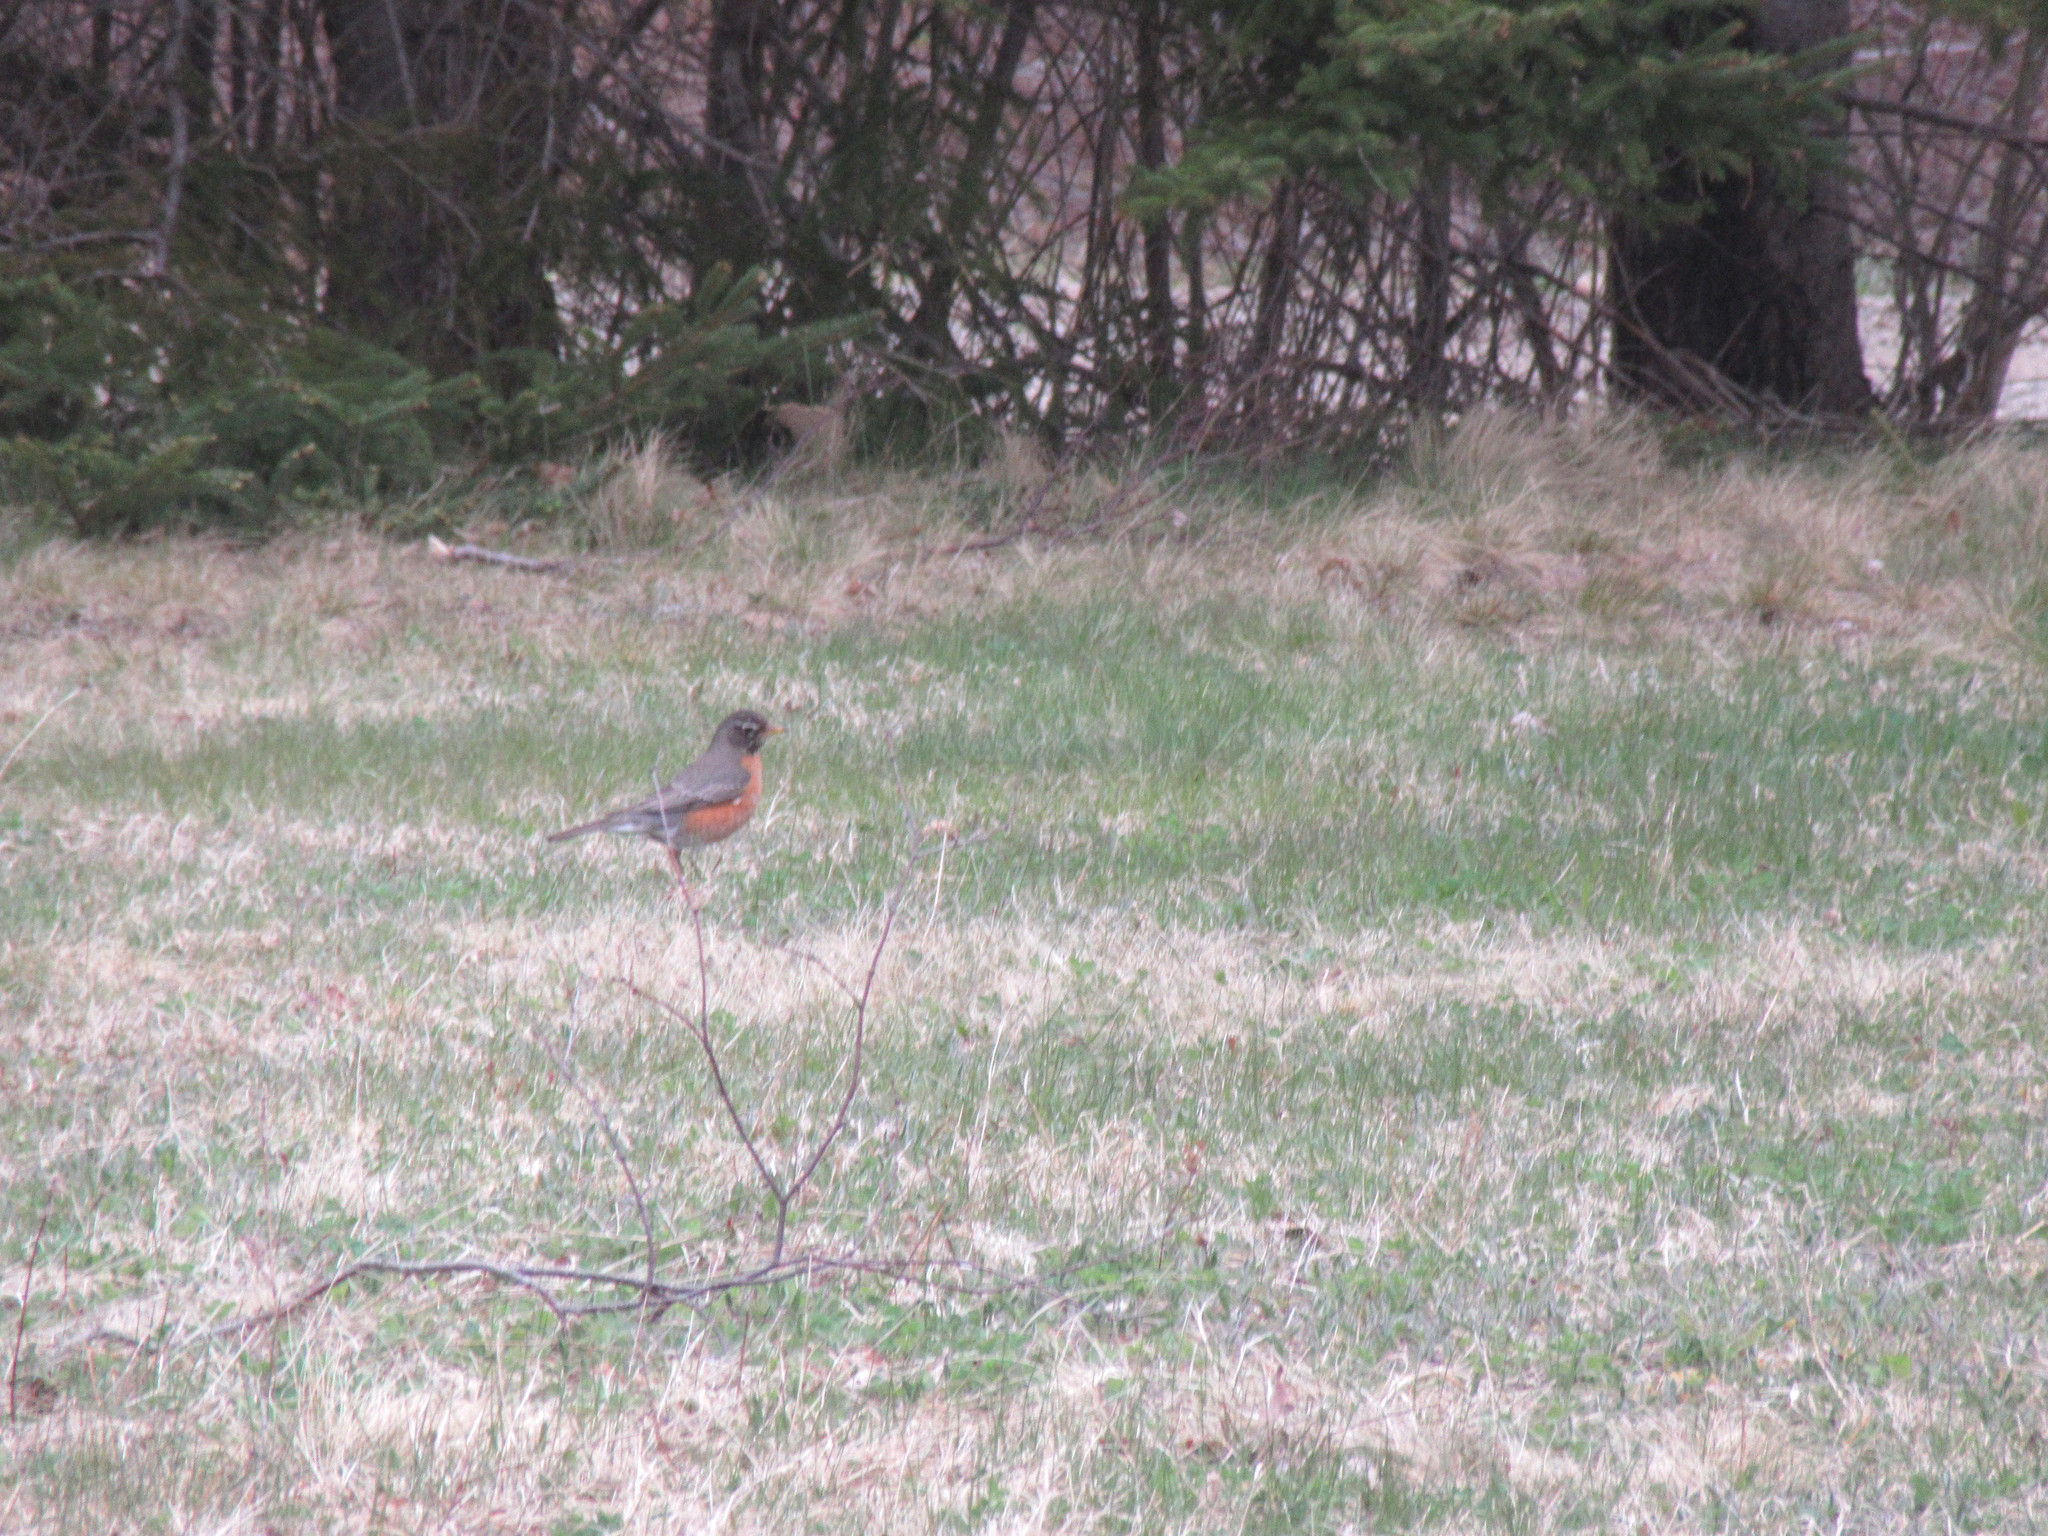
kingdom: Animalia
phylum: Chordata
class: Aves
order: Passeriformes
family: Turdidae
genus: Turdus
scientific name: Turdus migratorius
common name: American robin
